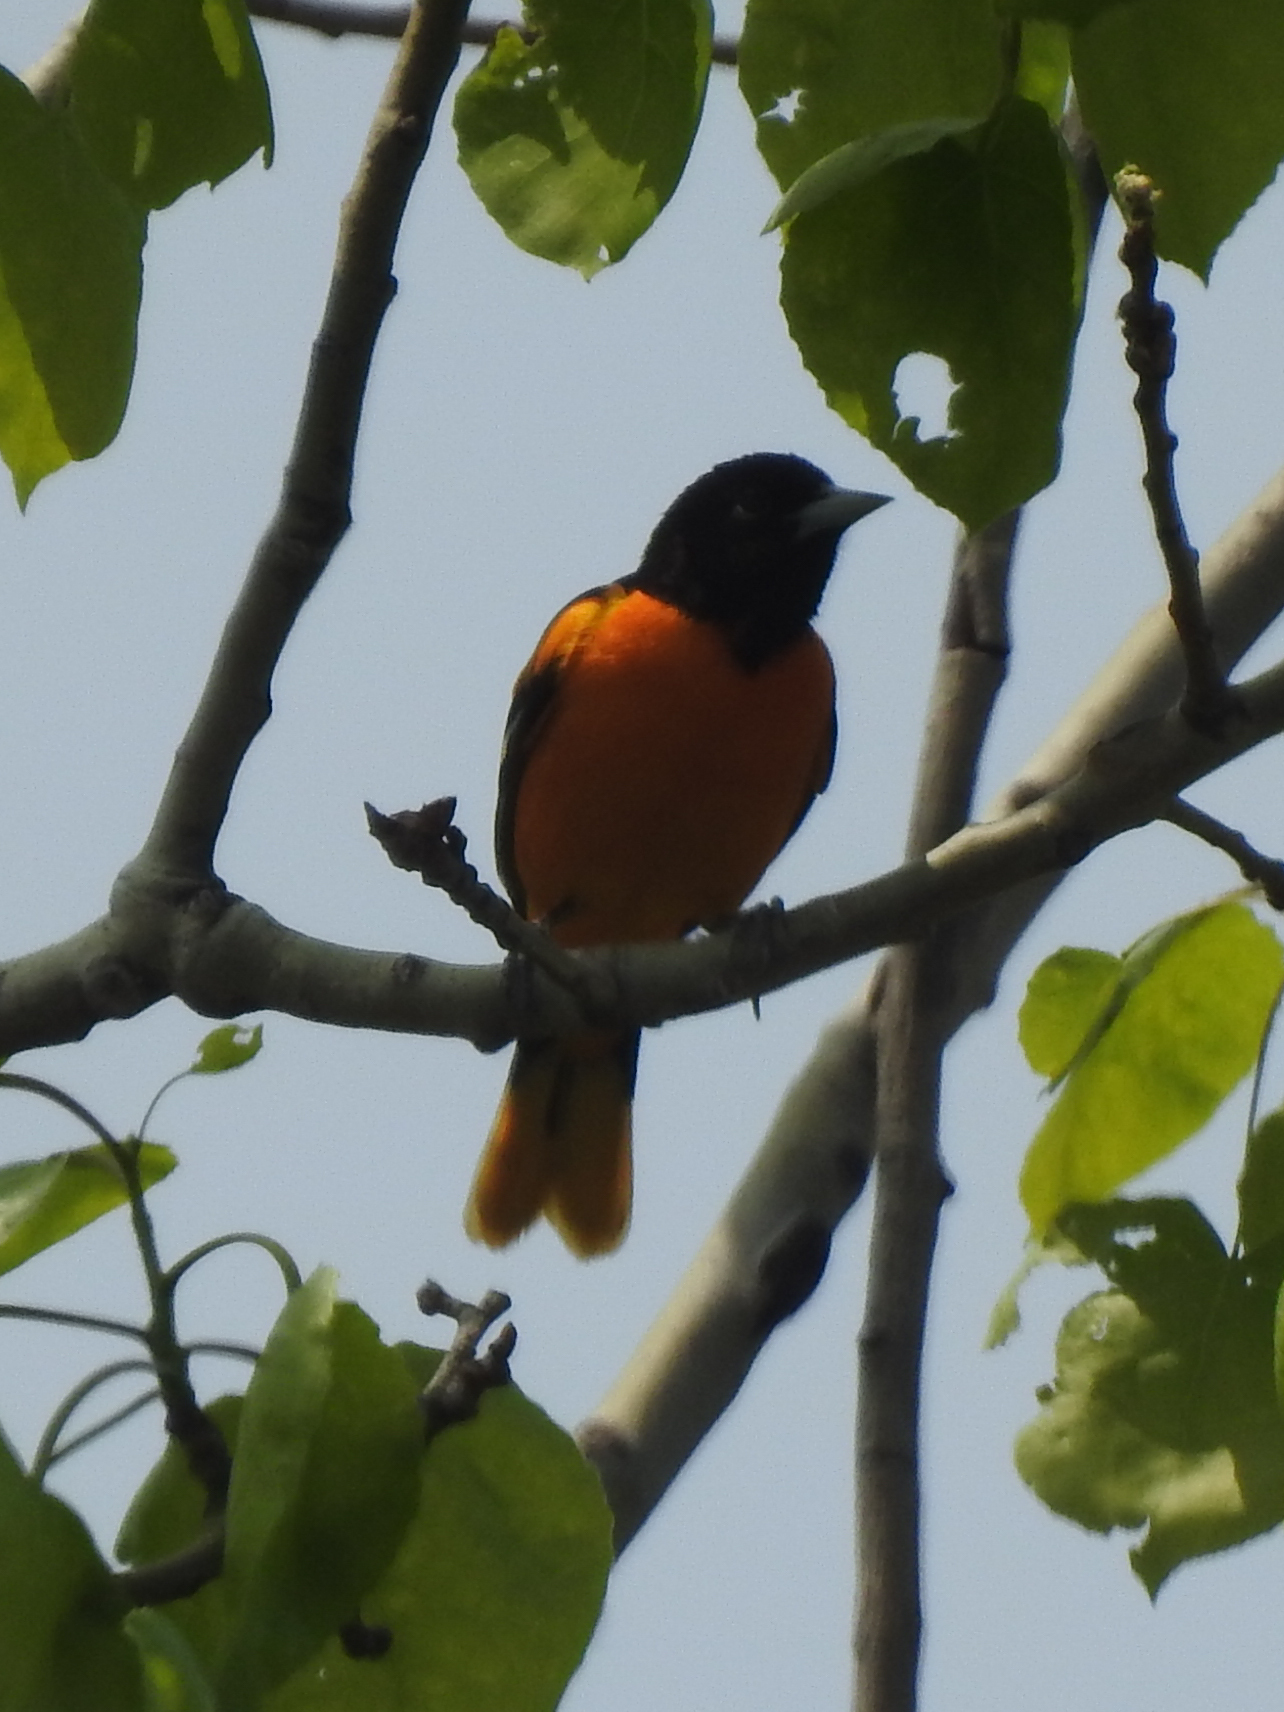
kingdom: Animalia
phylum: Chordata
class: Aves
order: Passeriformes
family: Icteridae
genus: Icterus
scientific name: Icterus galbula
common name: Baltimore oriole
